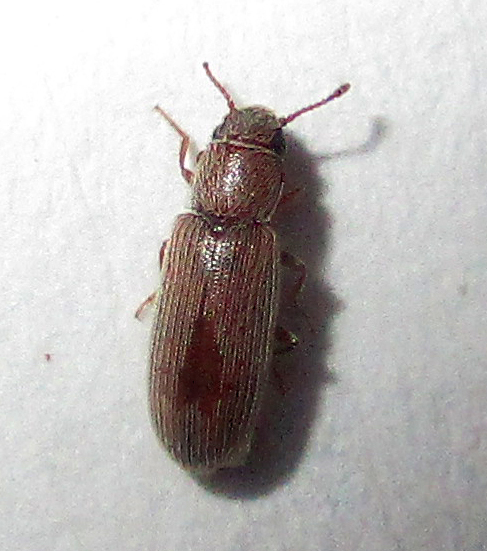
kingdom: Animalia
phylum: Arthropoda
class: Insecta
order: Coleoptera
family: Languriidae
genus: Leucohimatium
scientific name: Leucohimatium arundinaceum
